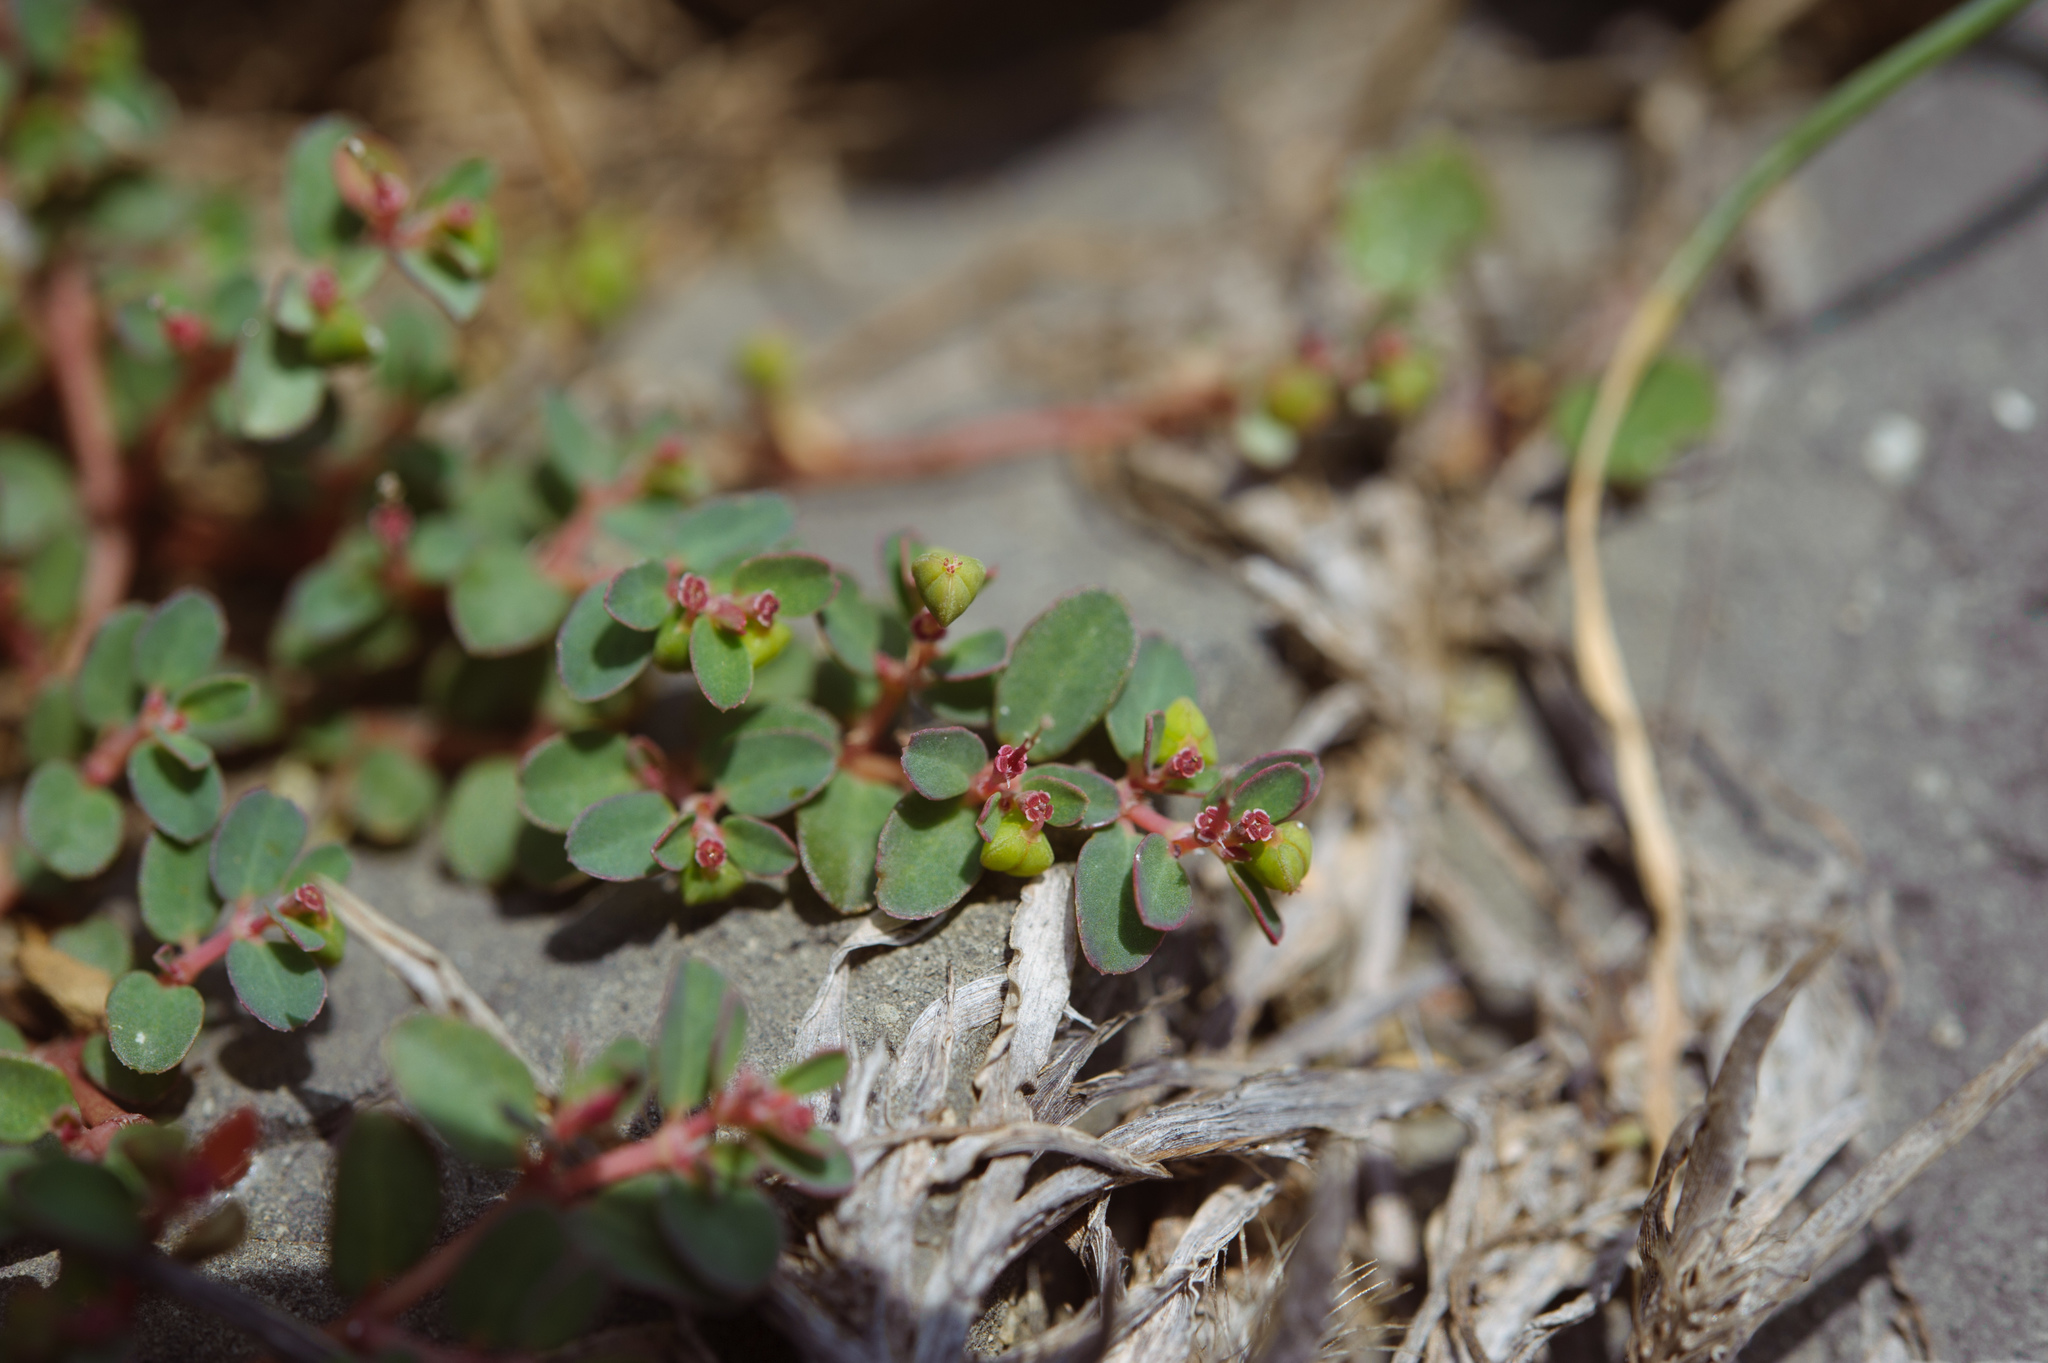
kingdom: Plantae
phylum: Tracheophyta
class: Magnoliopsida
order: Malpighiales
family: Euphorbiaceae
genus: Euphorbia
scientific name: Euphorbia makinoi
